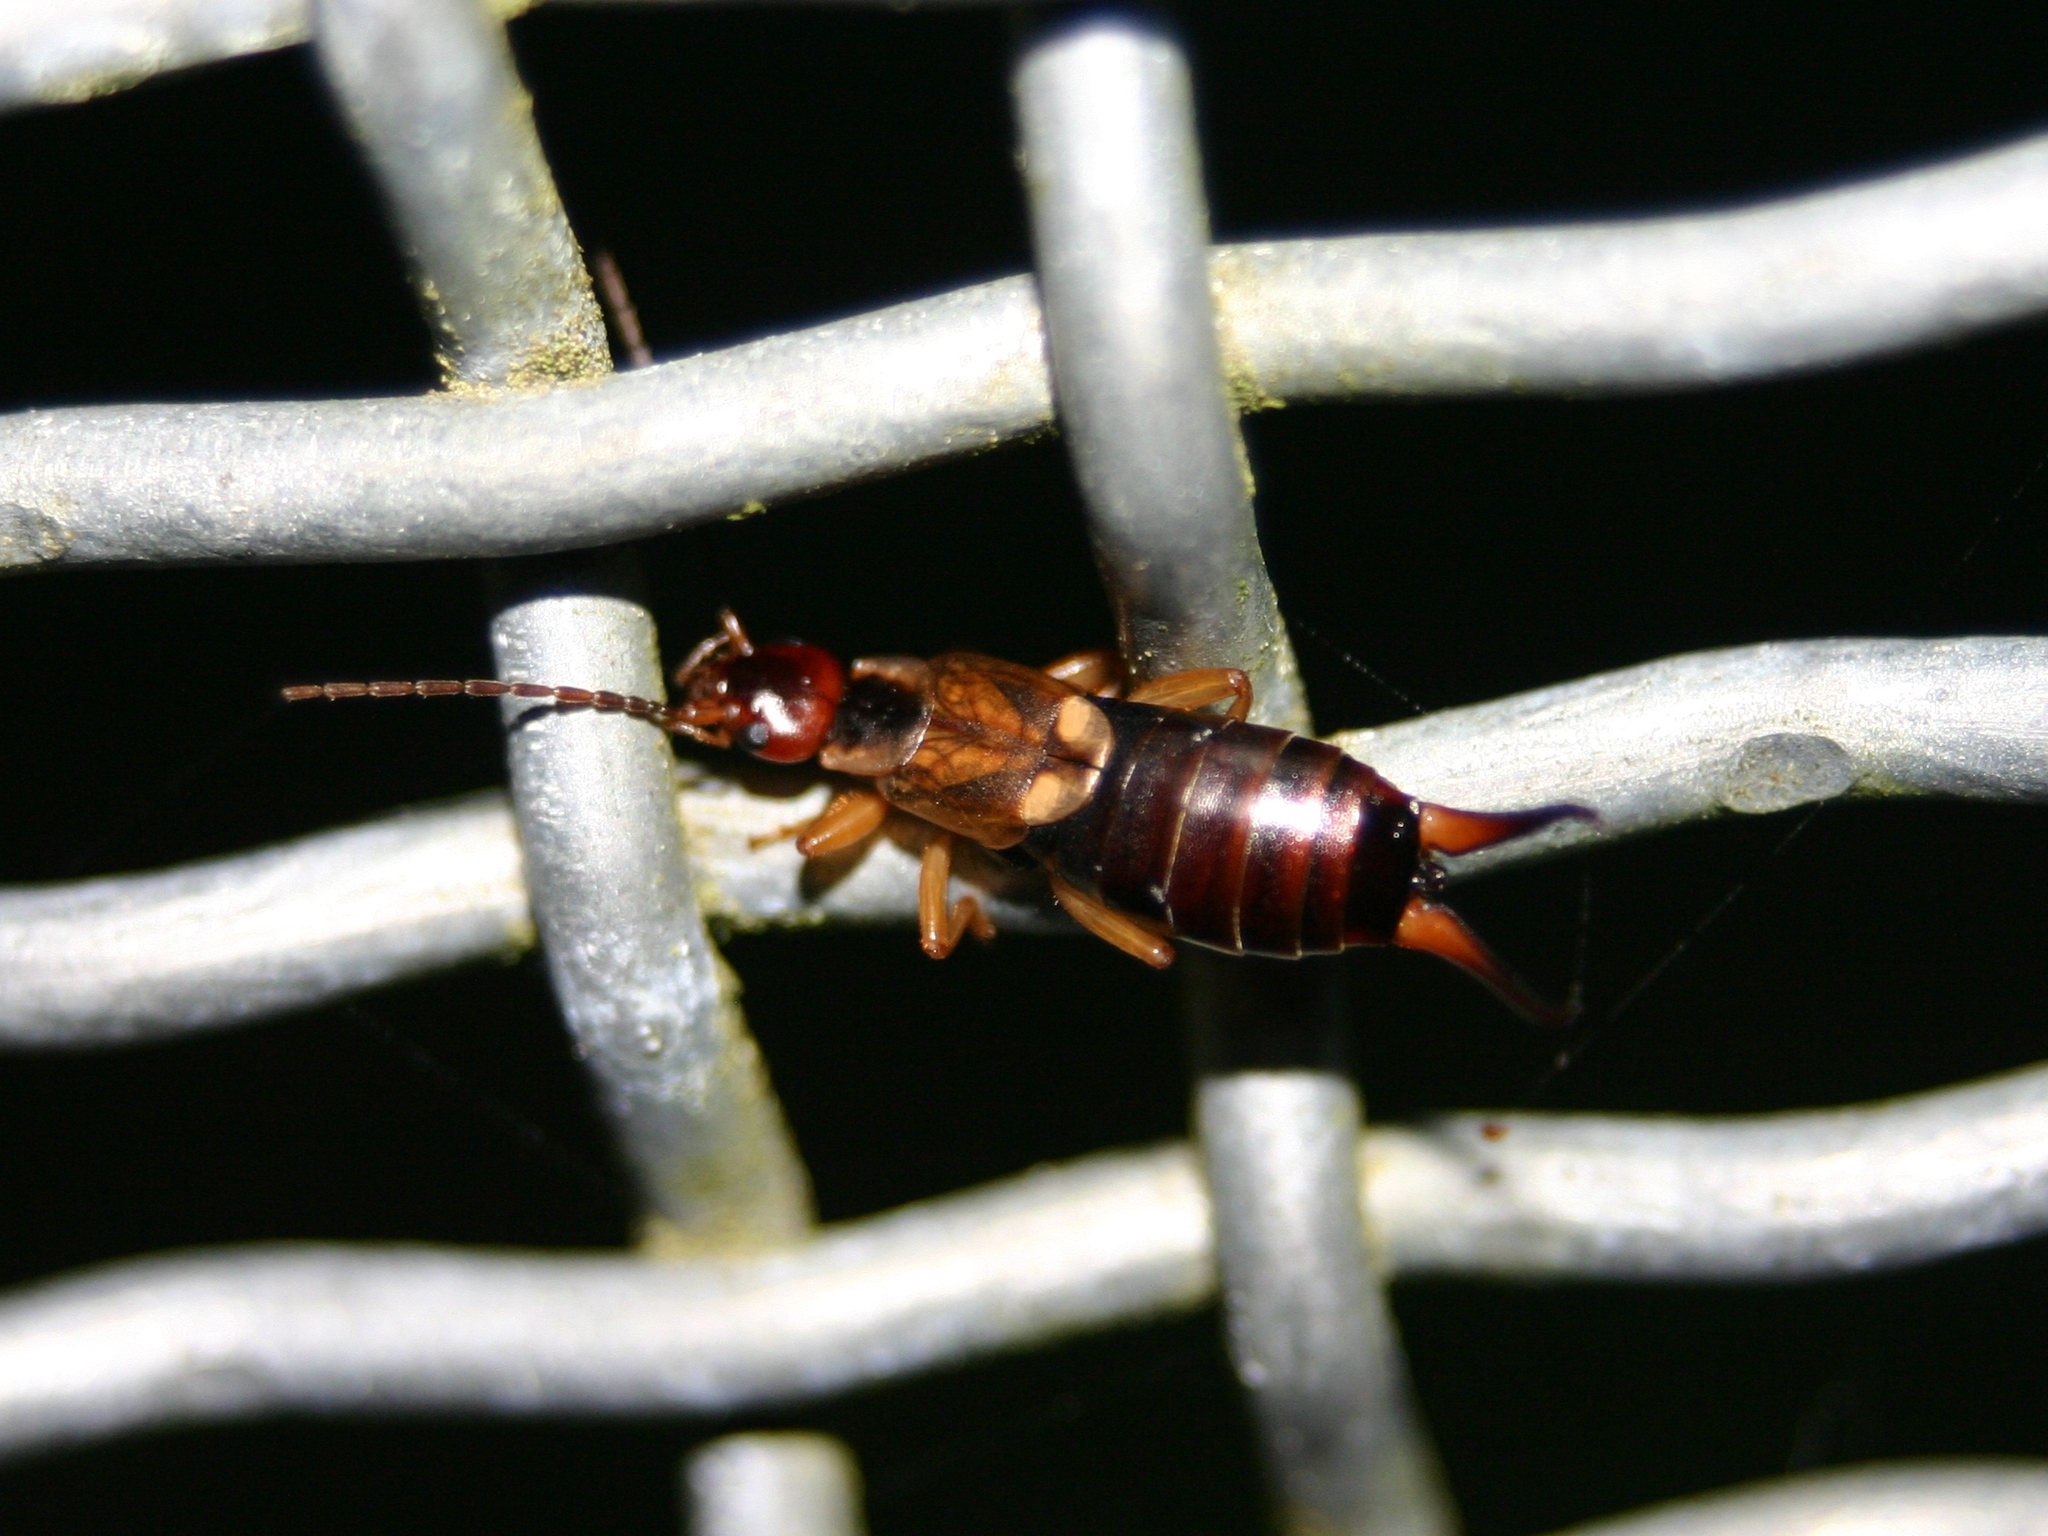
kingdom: Animalia
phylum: Arthropoda
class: Insecta
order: Dermaptera
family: Forficulidae
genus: Forficula
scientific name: Forficula
